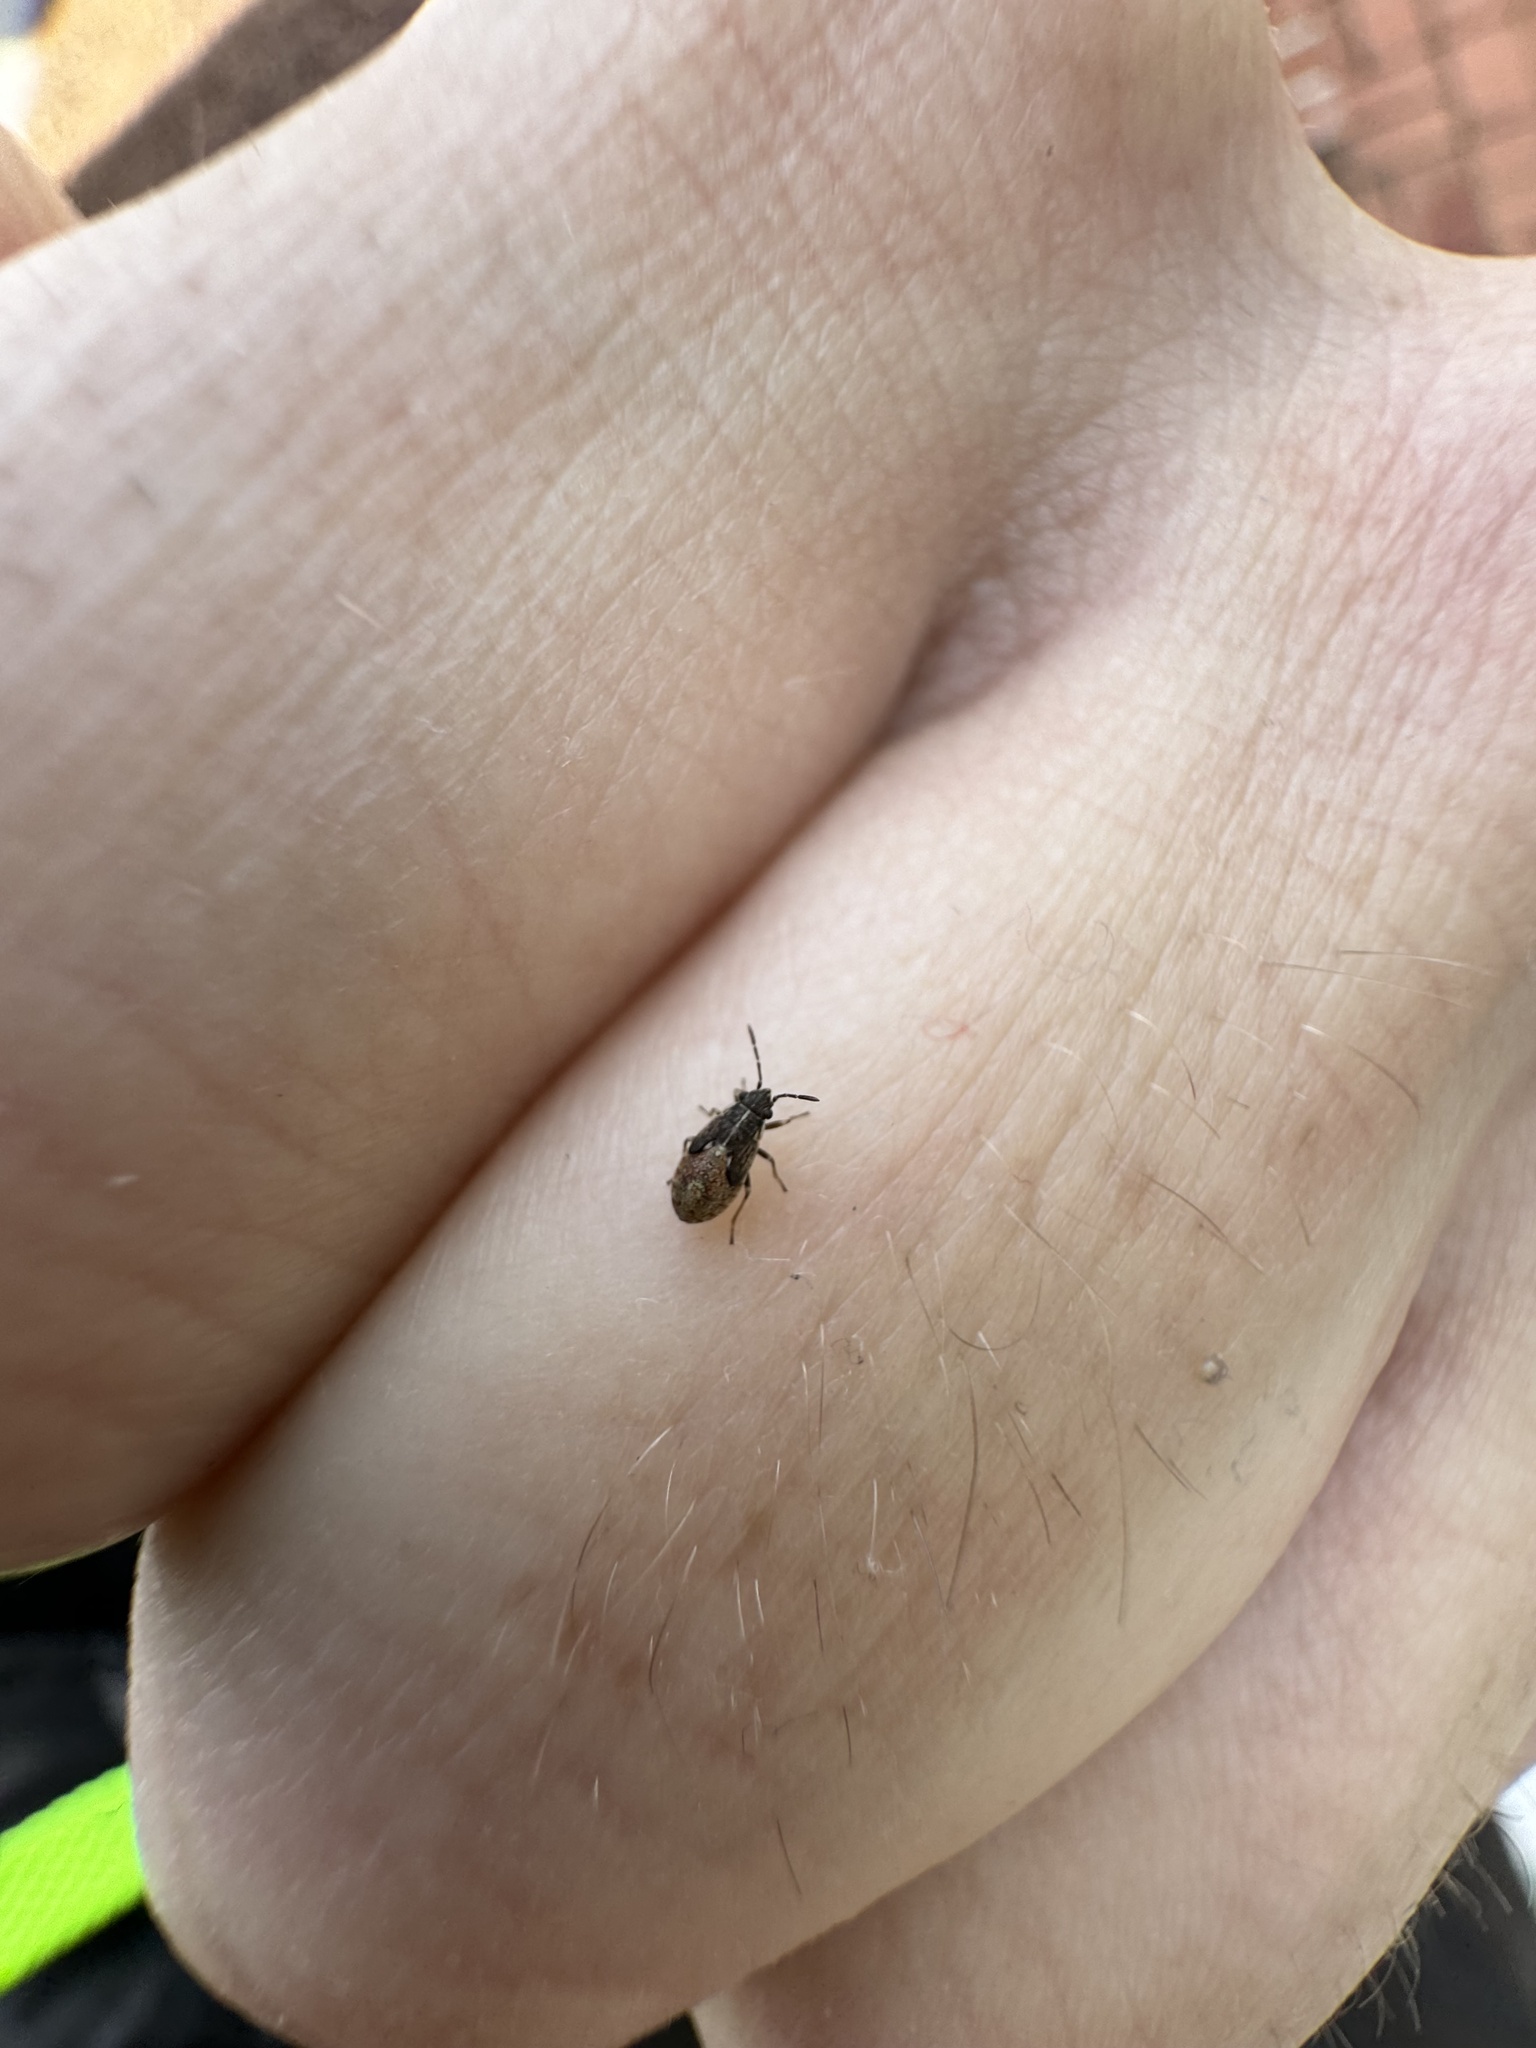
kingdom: Animalia
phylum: Arthropoda
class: Insecta
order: Hemiptera
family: Heterogastridae
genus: Heterogaster
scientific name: Heterogaster urticae
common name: Seed bug
